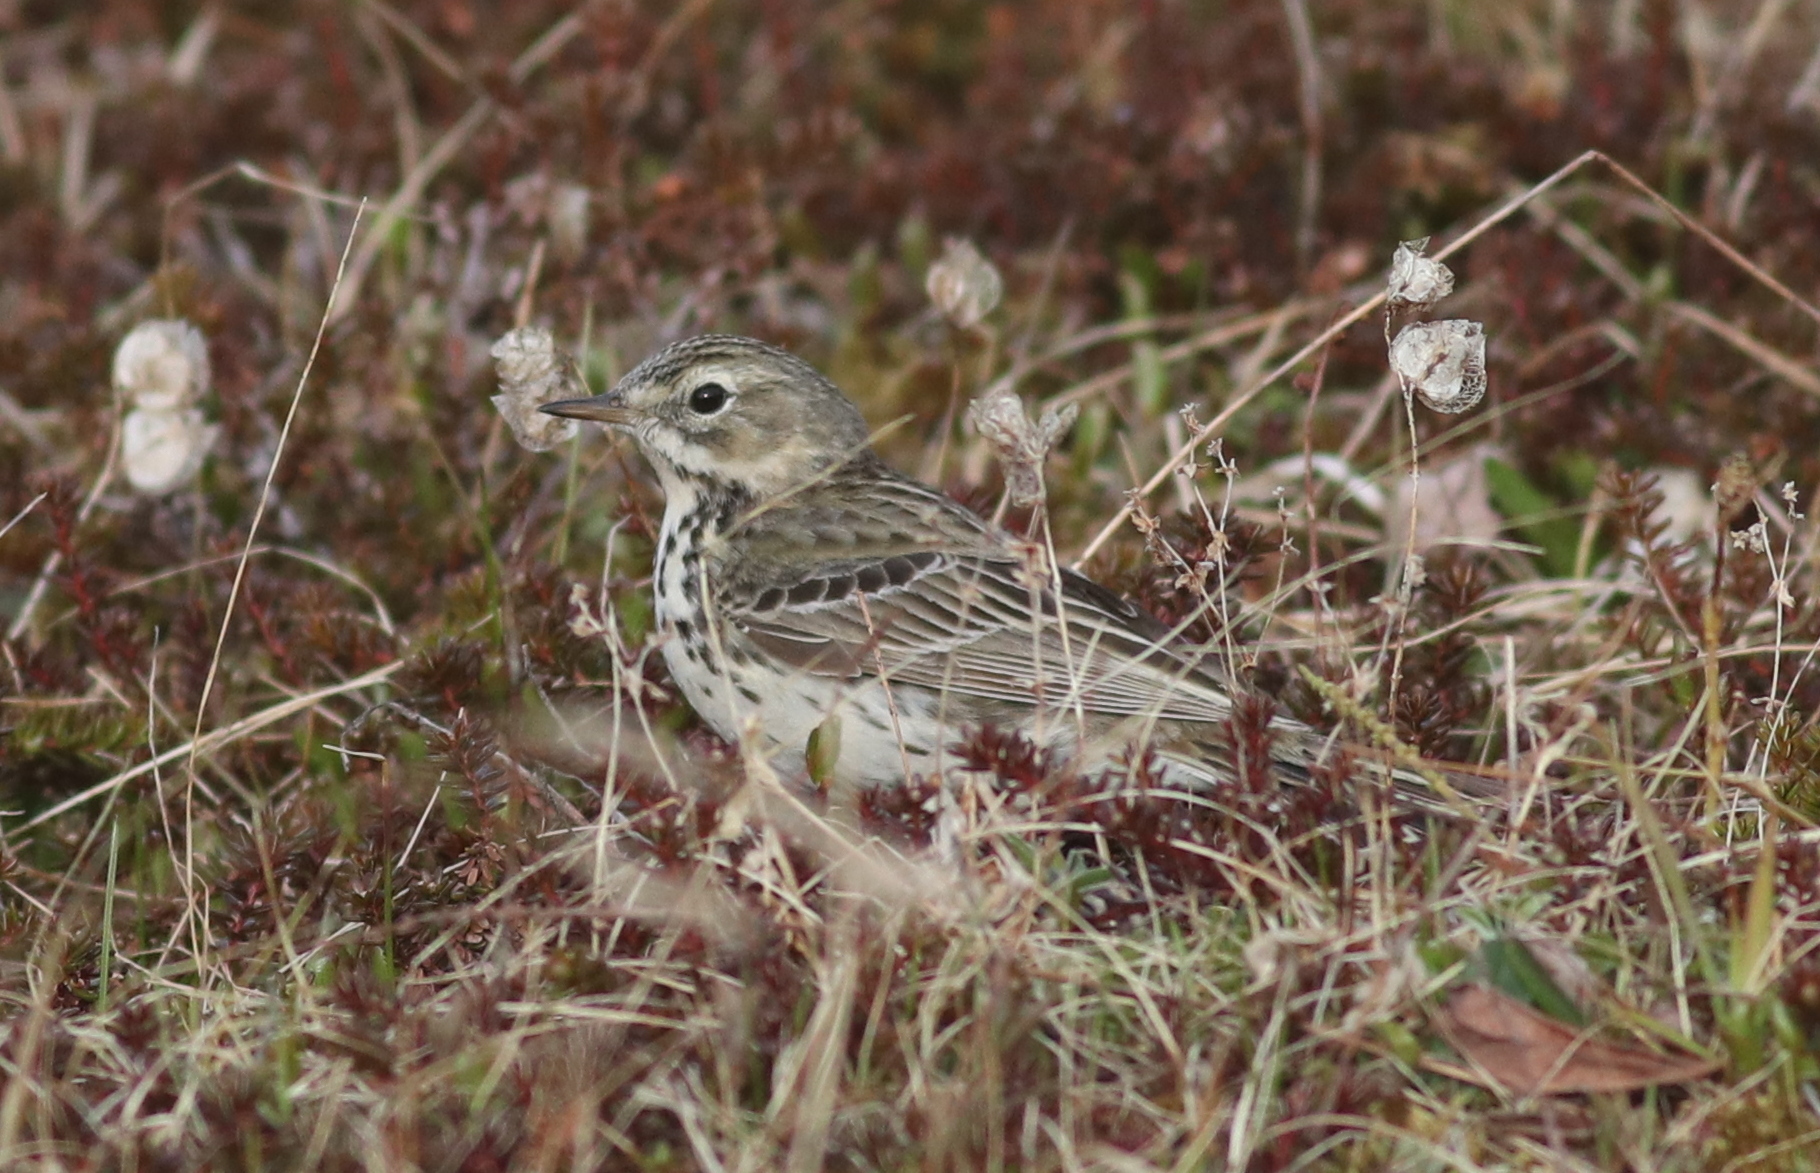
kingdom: Animalia
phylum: Chordata
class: Aves
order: Passeriformes
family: Motacillidae
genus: Anthus
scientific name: Anthus pratensis
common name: Meadow pipit
